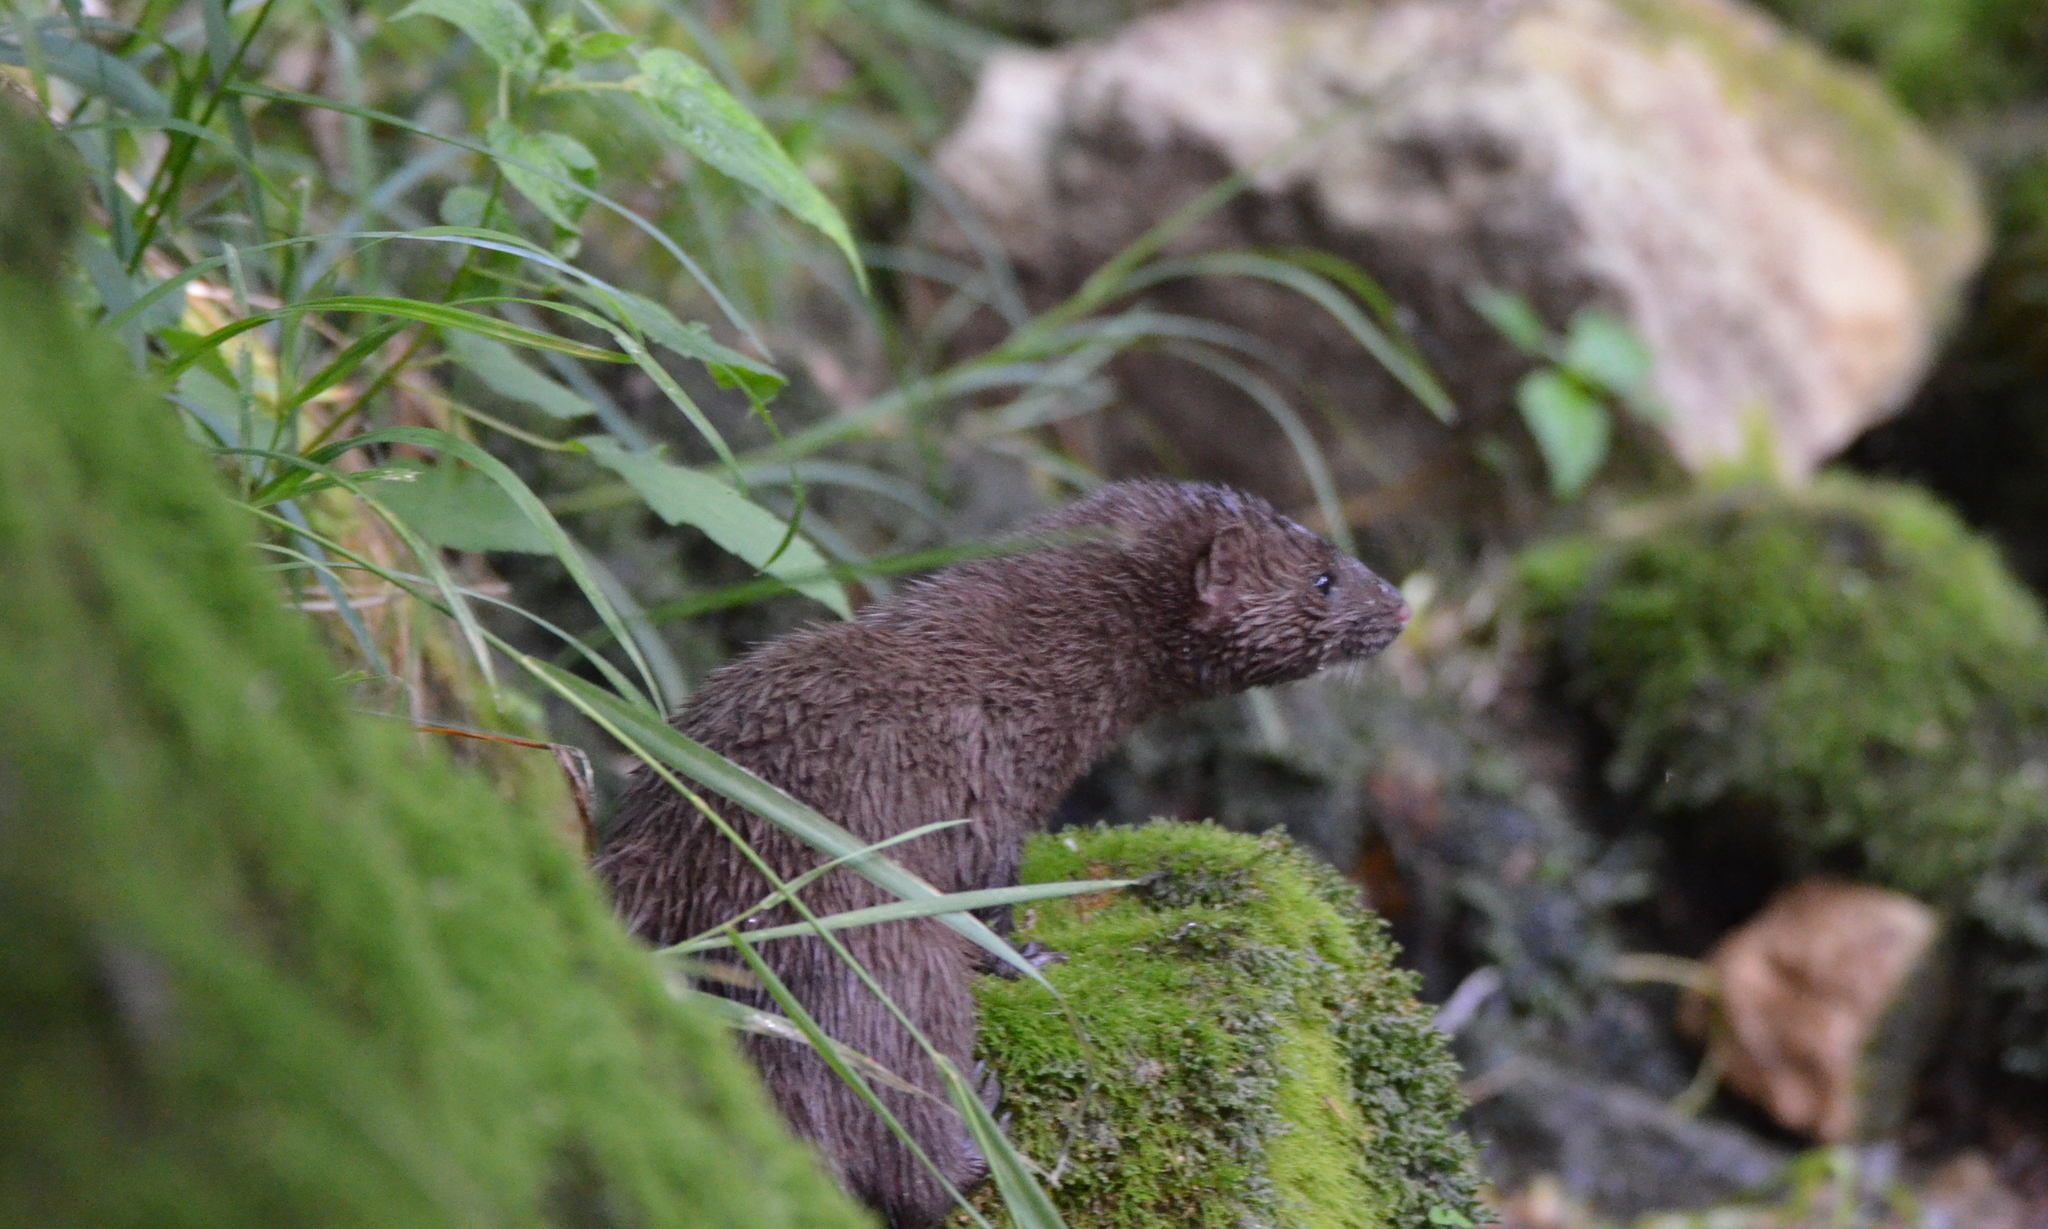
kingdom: Animalia
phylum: Chordata
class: Mammalia
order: Carnivora
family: Mustelidae
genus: Mustela
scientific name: Mustela
